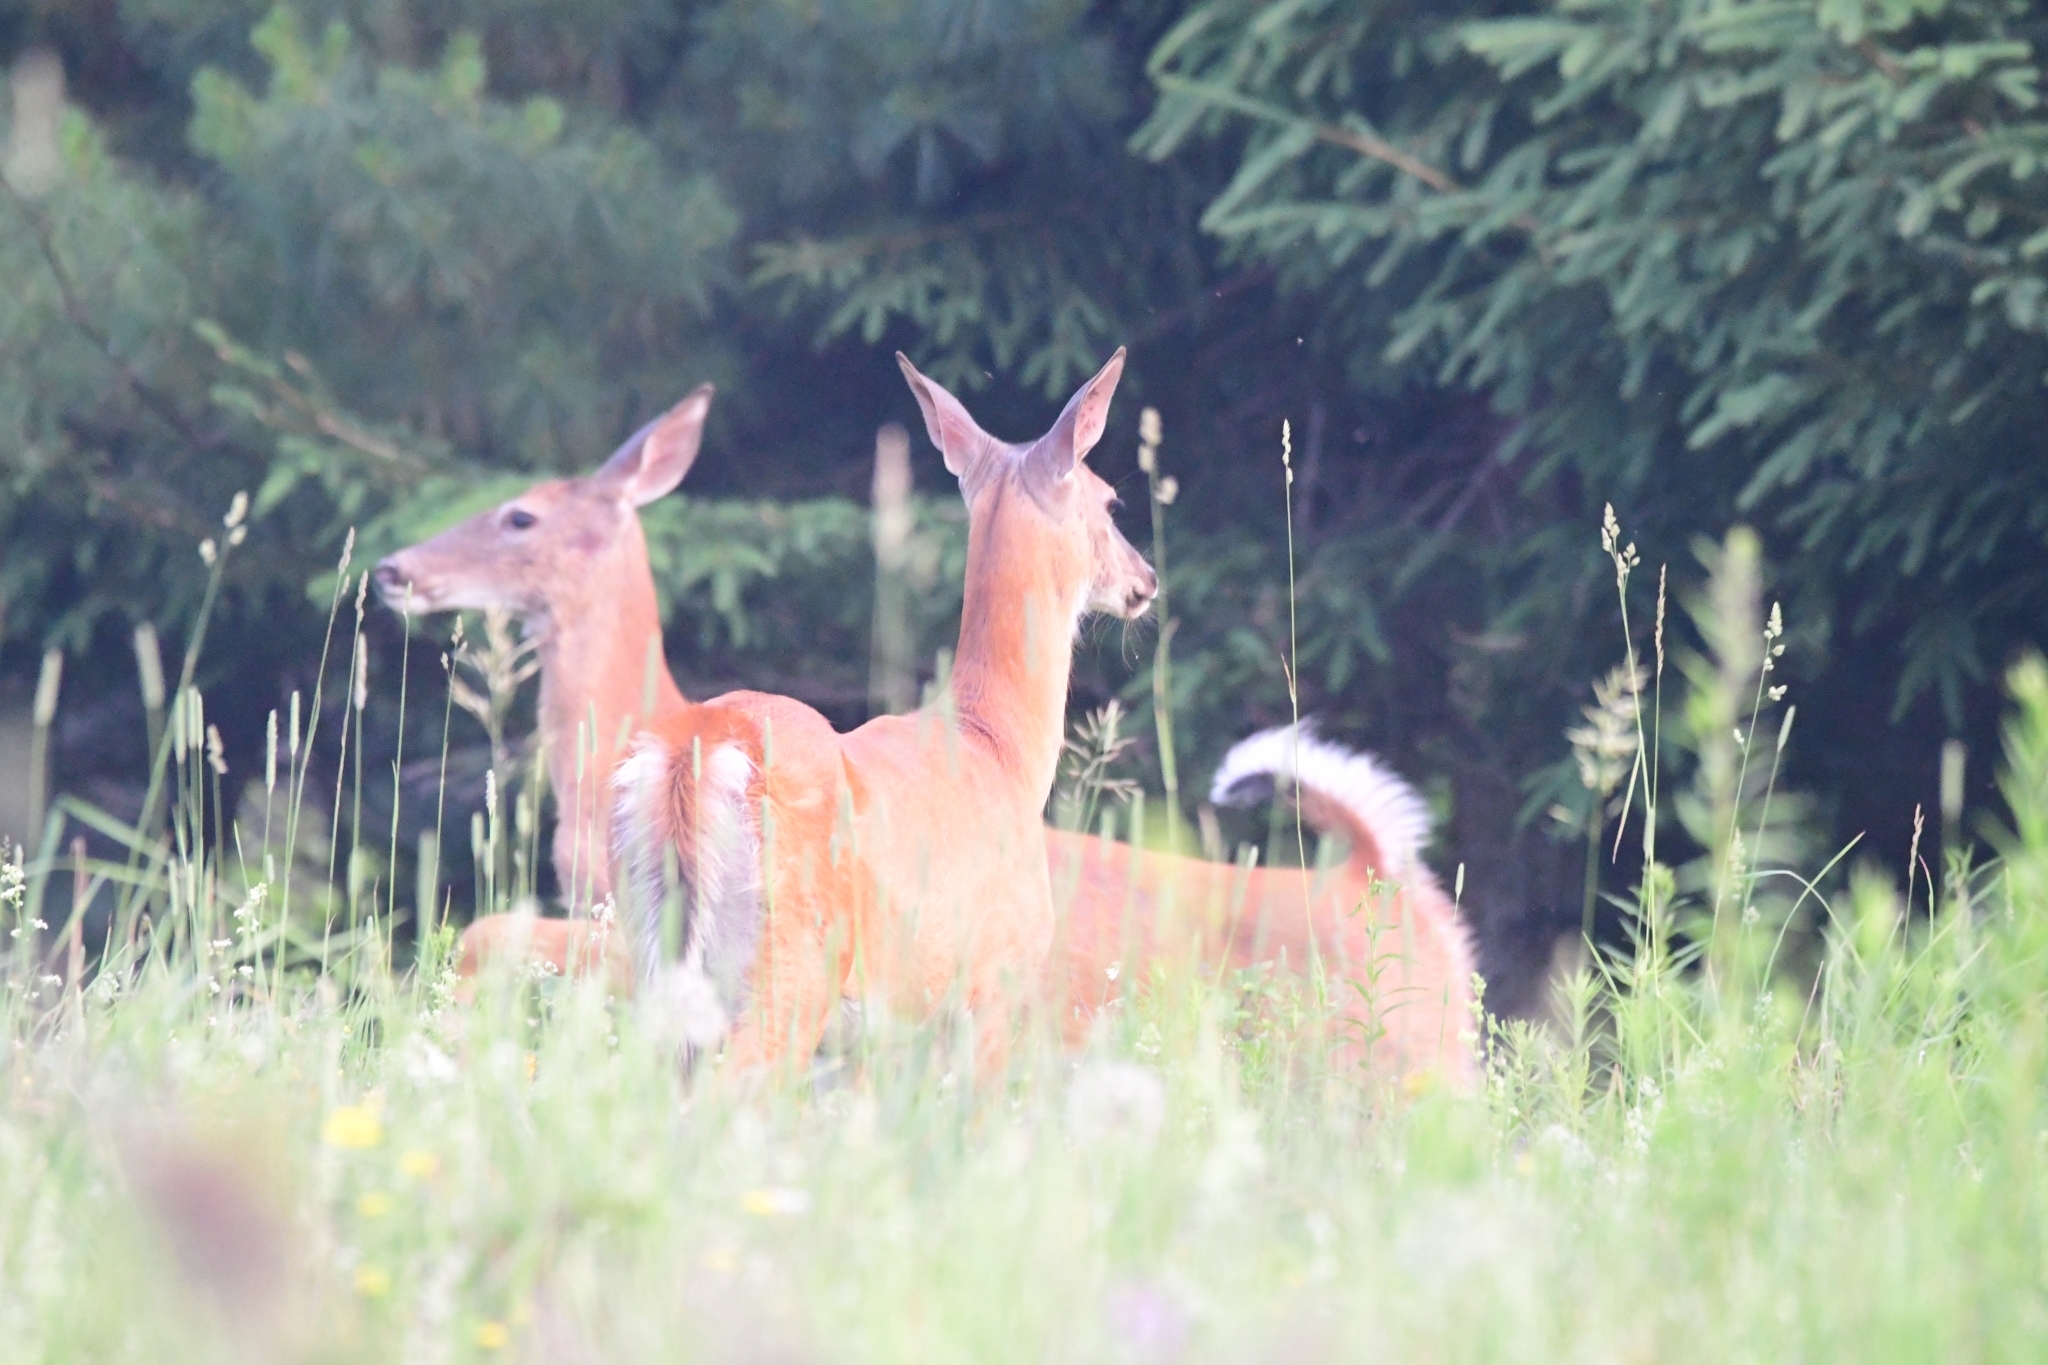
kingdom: Animalia
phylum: Chordata
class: Mammalia
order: Artiodactyla
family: Cervidae
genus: Odocoileus
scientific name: Odocoileus virginianus
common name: White-tailed deer
